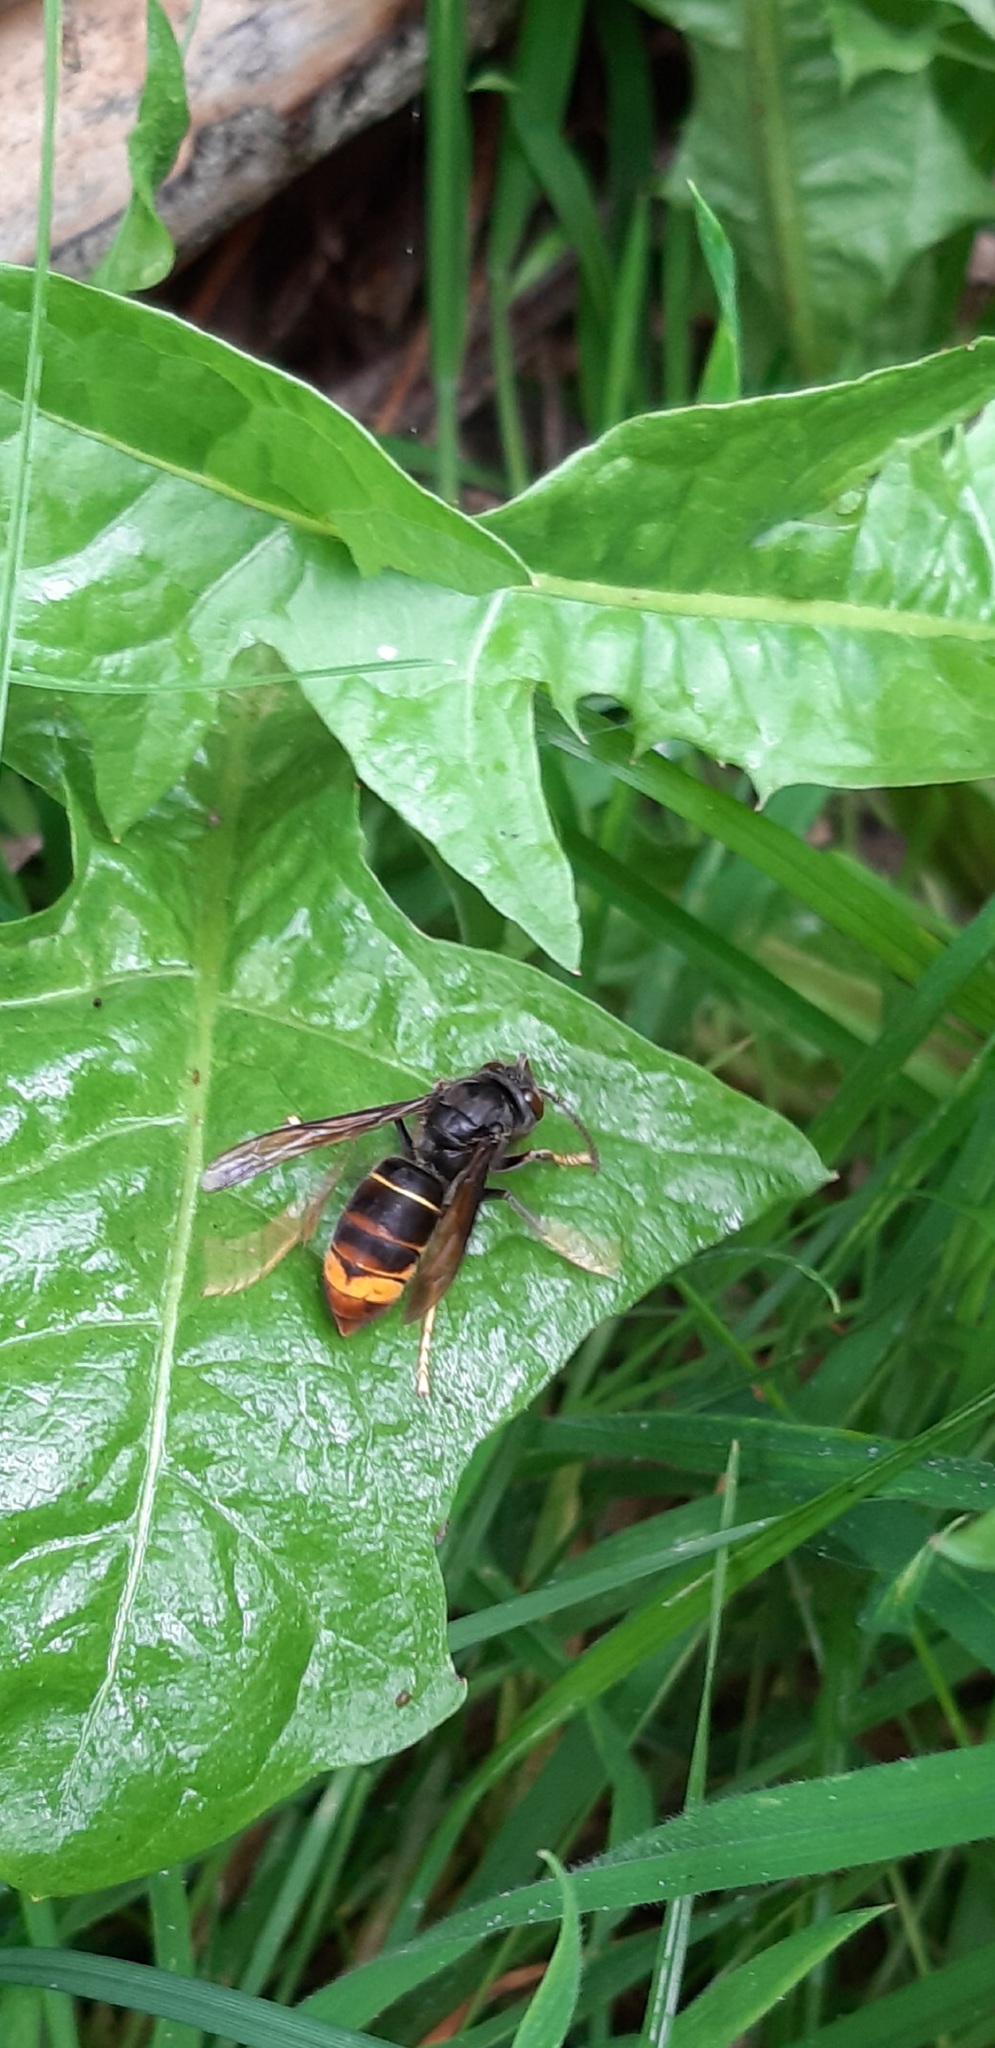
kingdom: Animalia
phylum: Arthropoda
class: Insecta
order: Hymenoptera
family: Vespidae
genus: Vespa
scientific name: Vespa velutina
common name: Asian hornet
